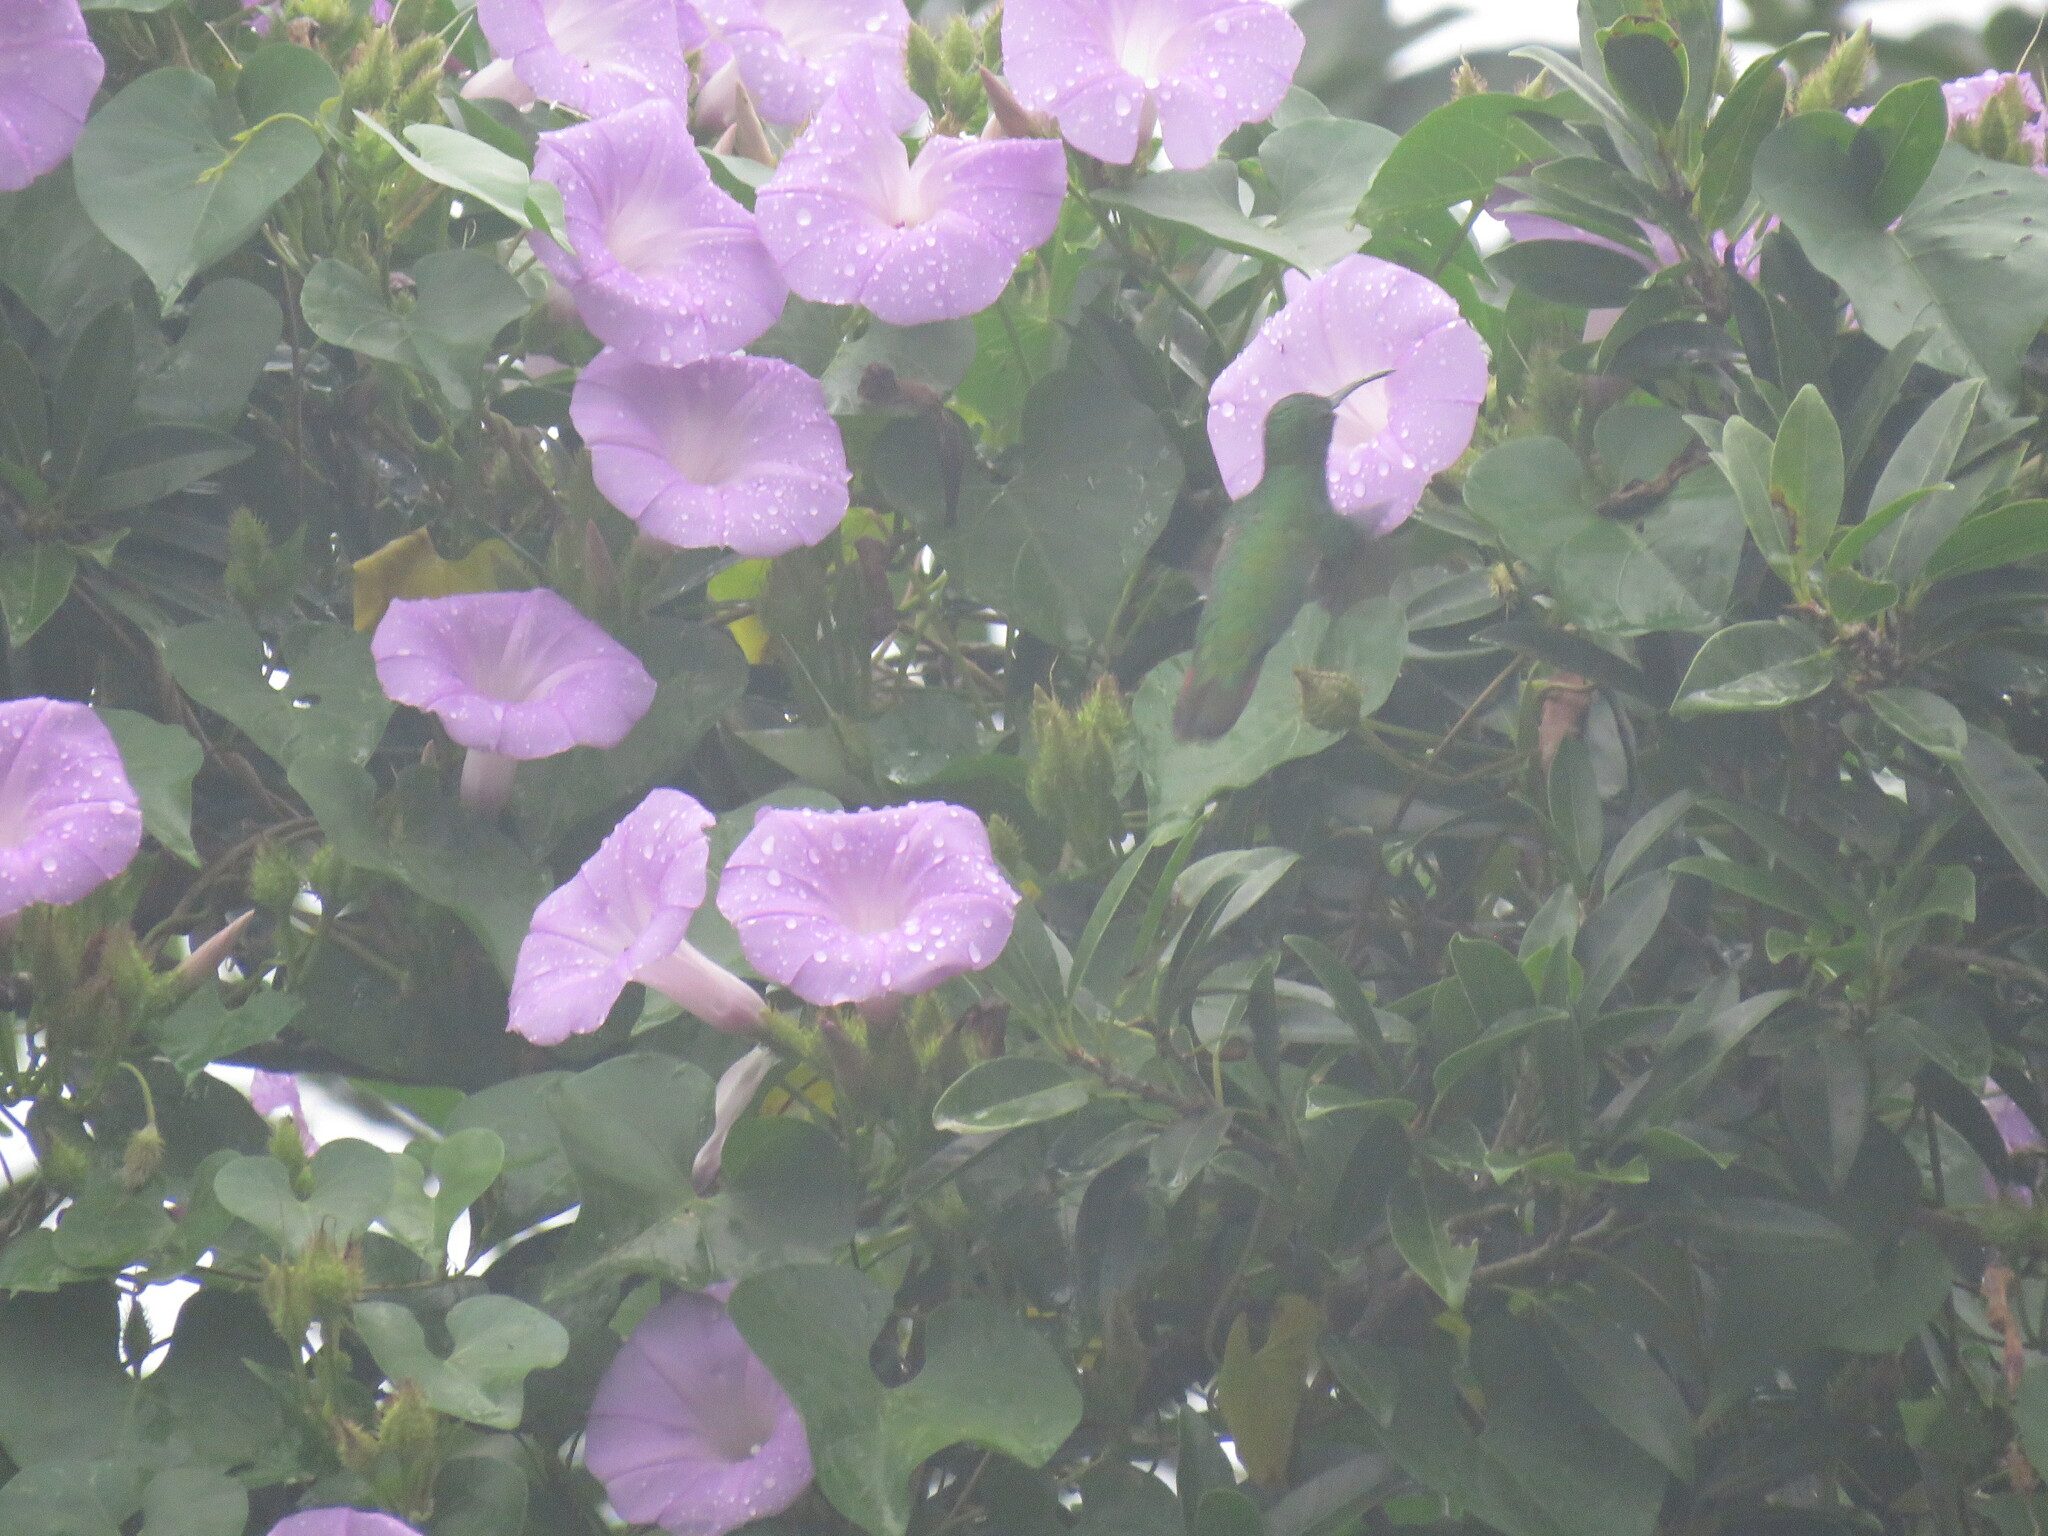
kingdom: Animalia
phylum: Chordata
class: Aves
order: Apodiformes
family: Trochilidae
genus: Anthracothorax
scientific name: Anthracothorax prevostii
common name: Green-breasted mango
